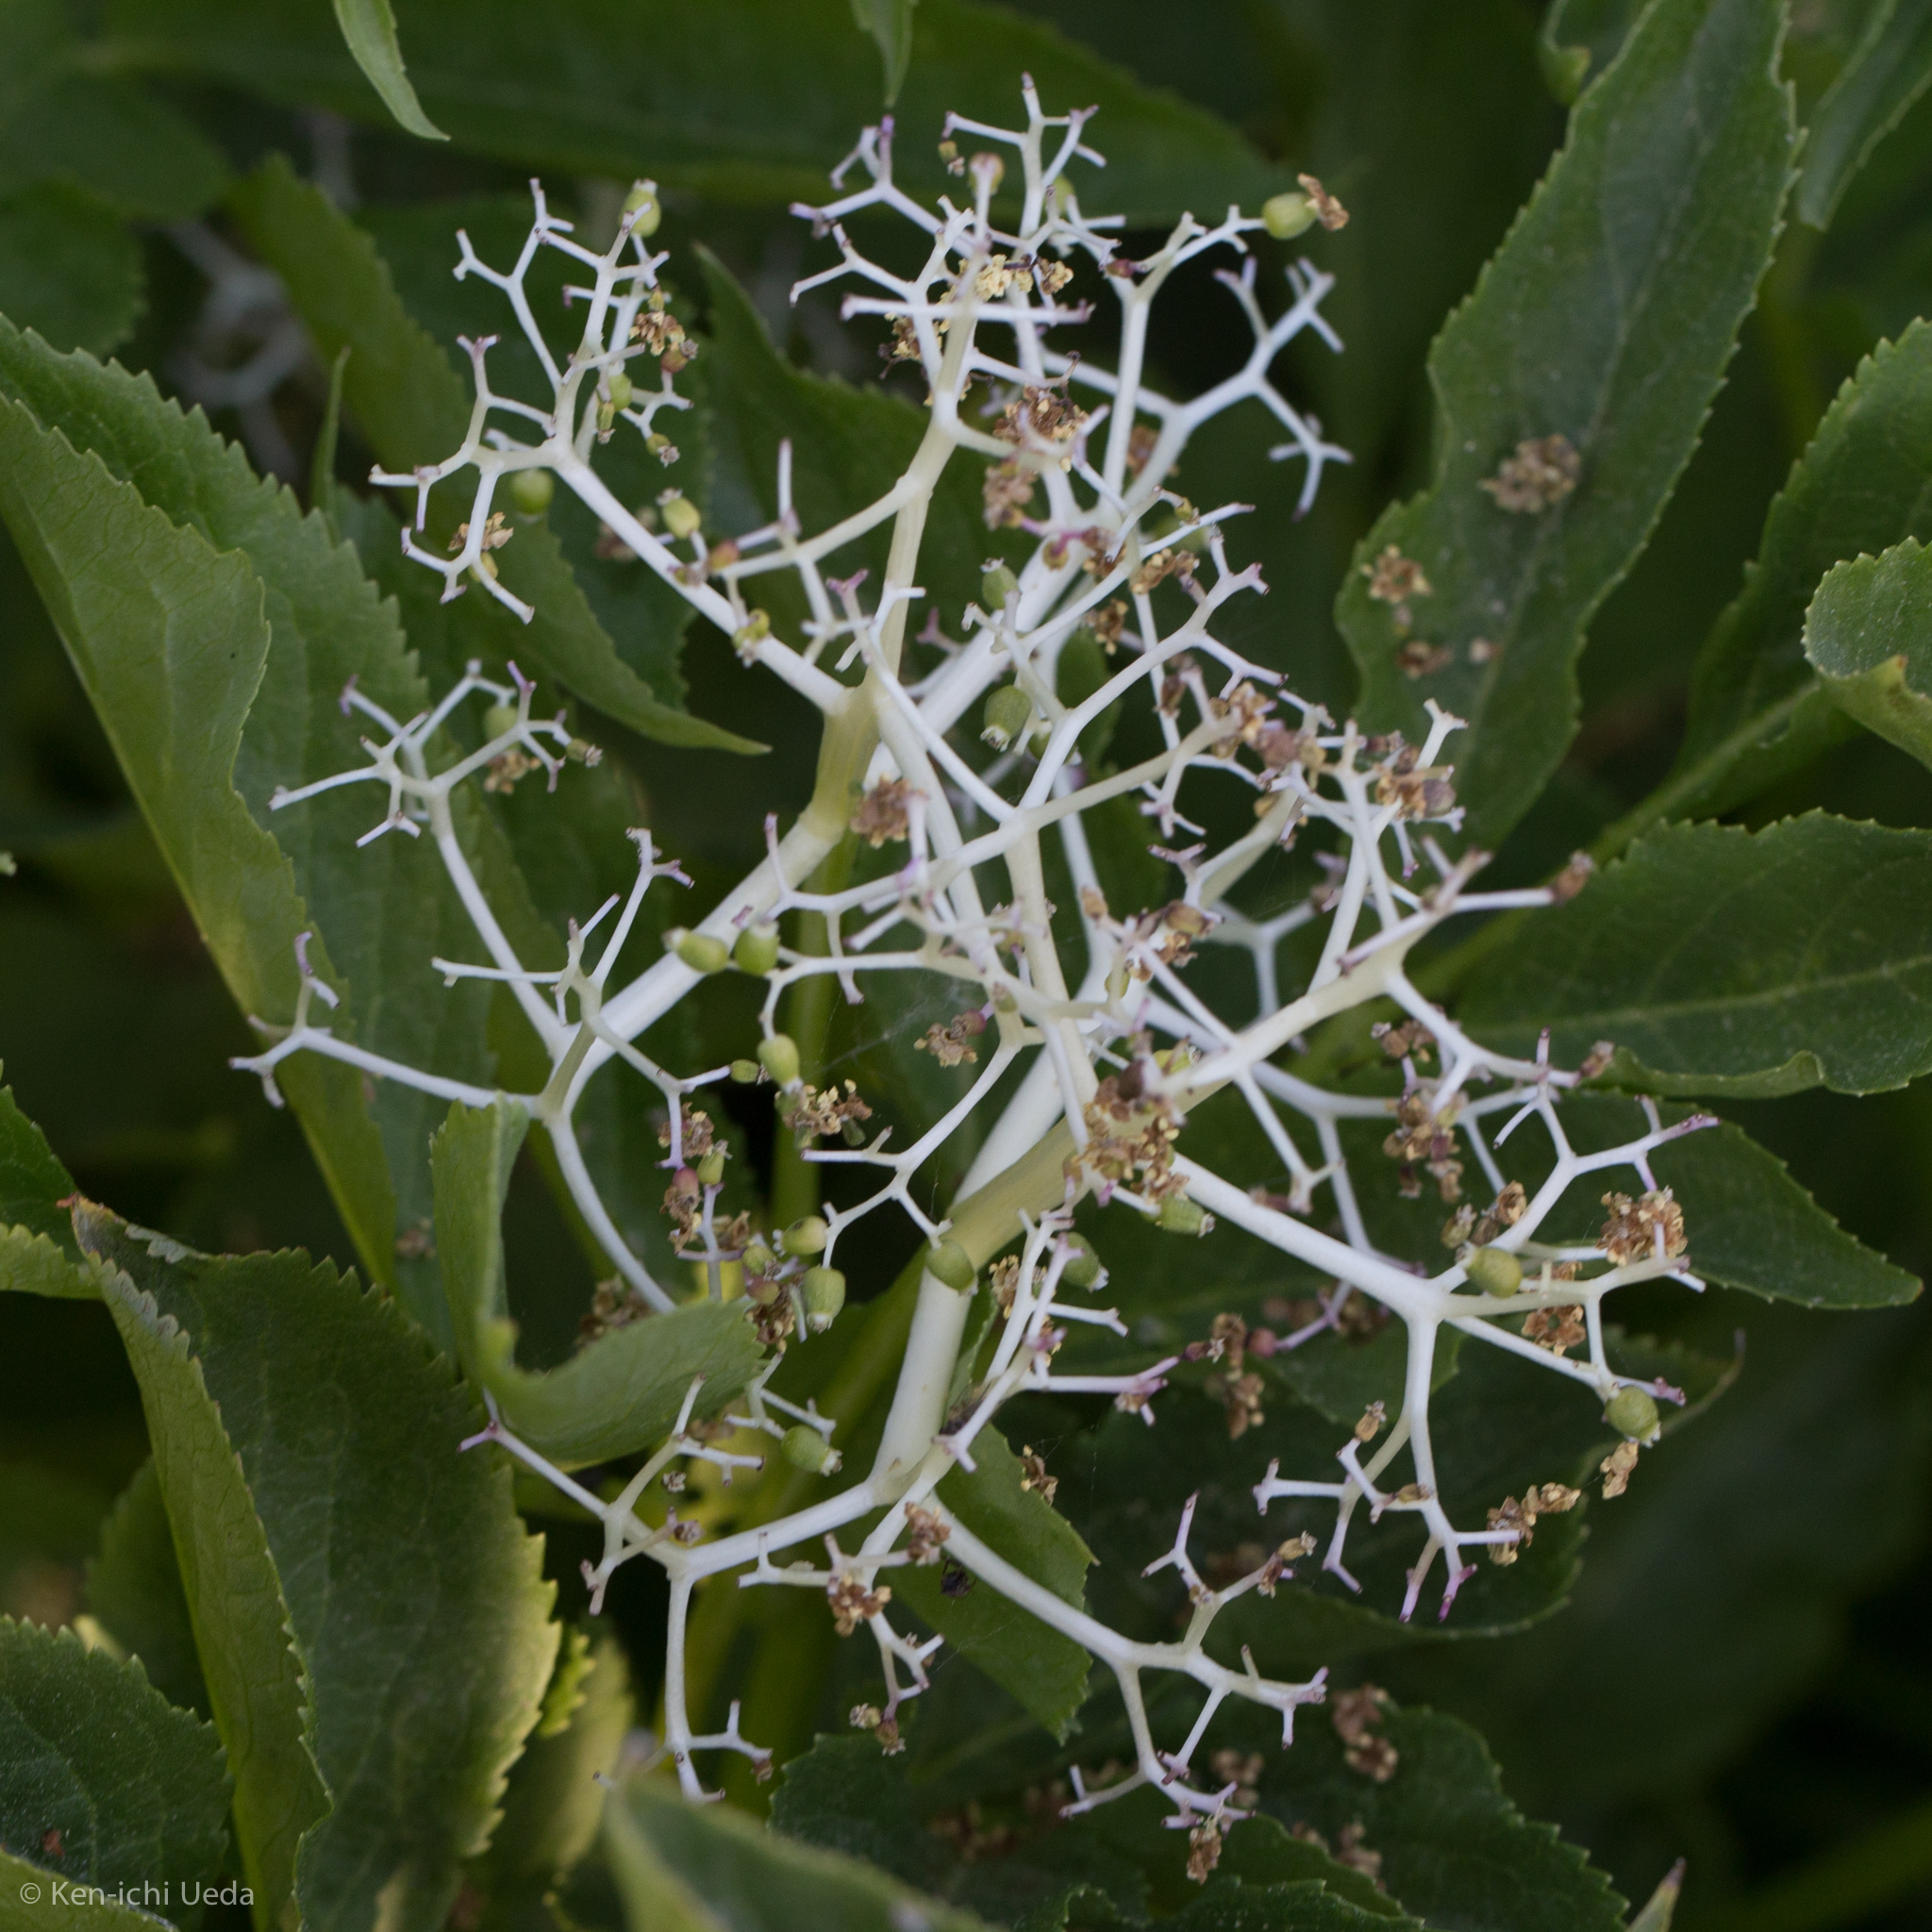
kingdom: Plantae
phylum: Tracheophyta
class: Magnoliopsida
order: Dipsacales
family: Viburnaceae
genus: Sambucus
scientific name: Sambucus racemosa
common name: Red-berried elder
